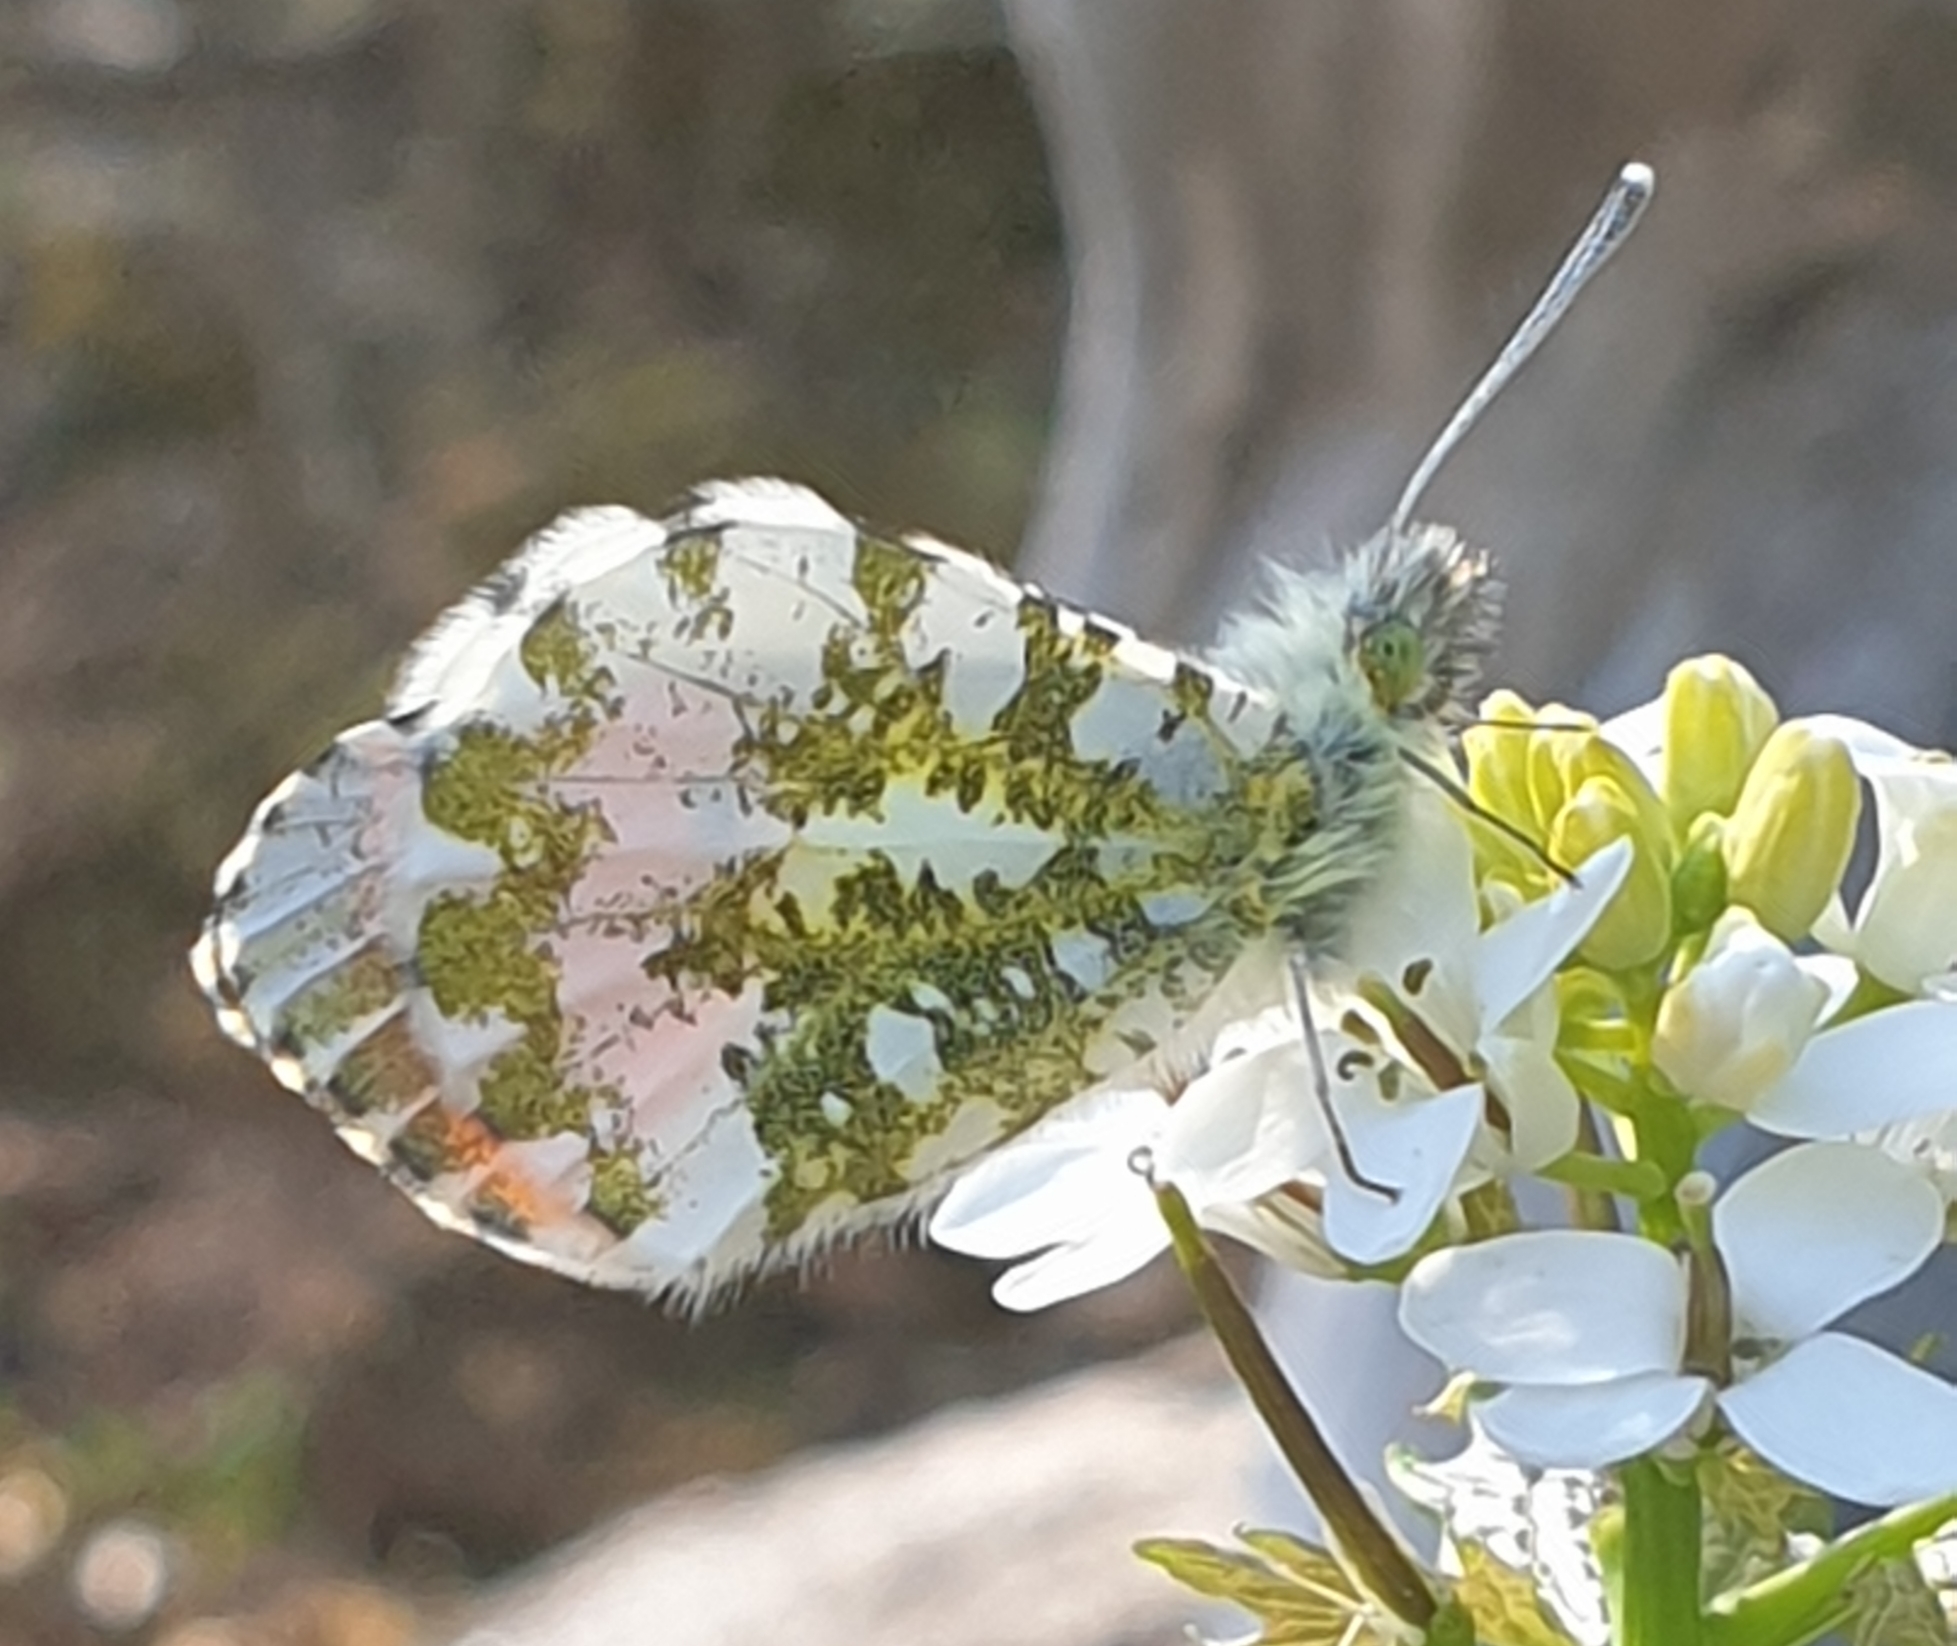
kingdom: Animalia
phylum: Arthropoda
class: Insecta
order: Lepidoptera
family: Pieridae
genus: Anthocharis
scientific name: Anthocharis cardamines
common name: Orange-tip
